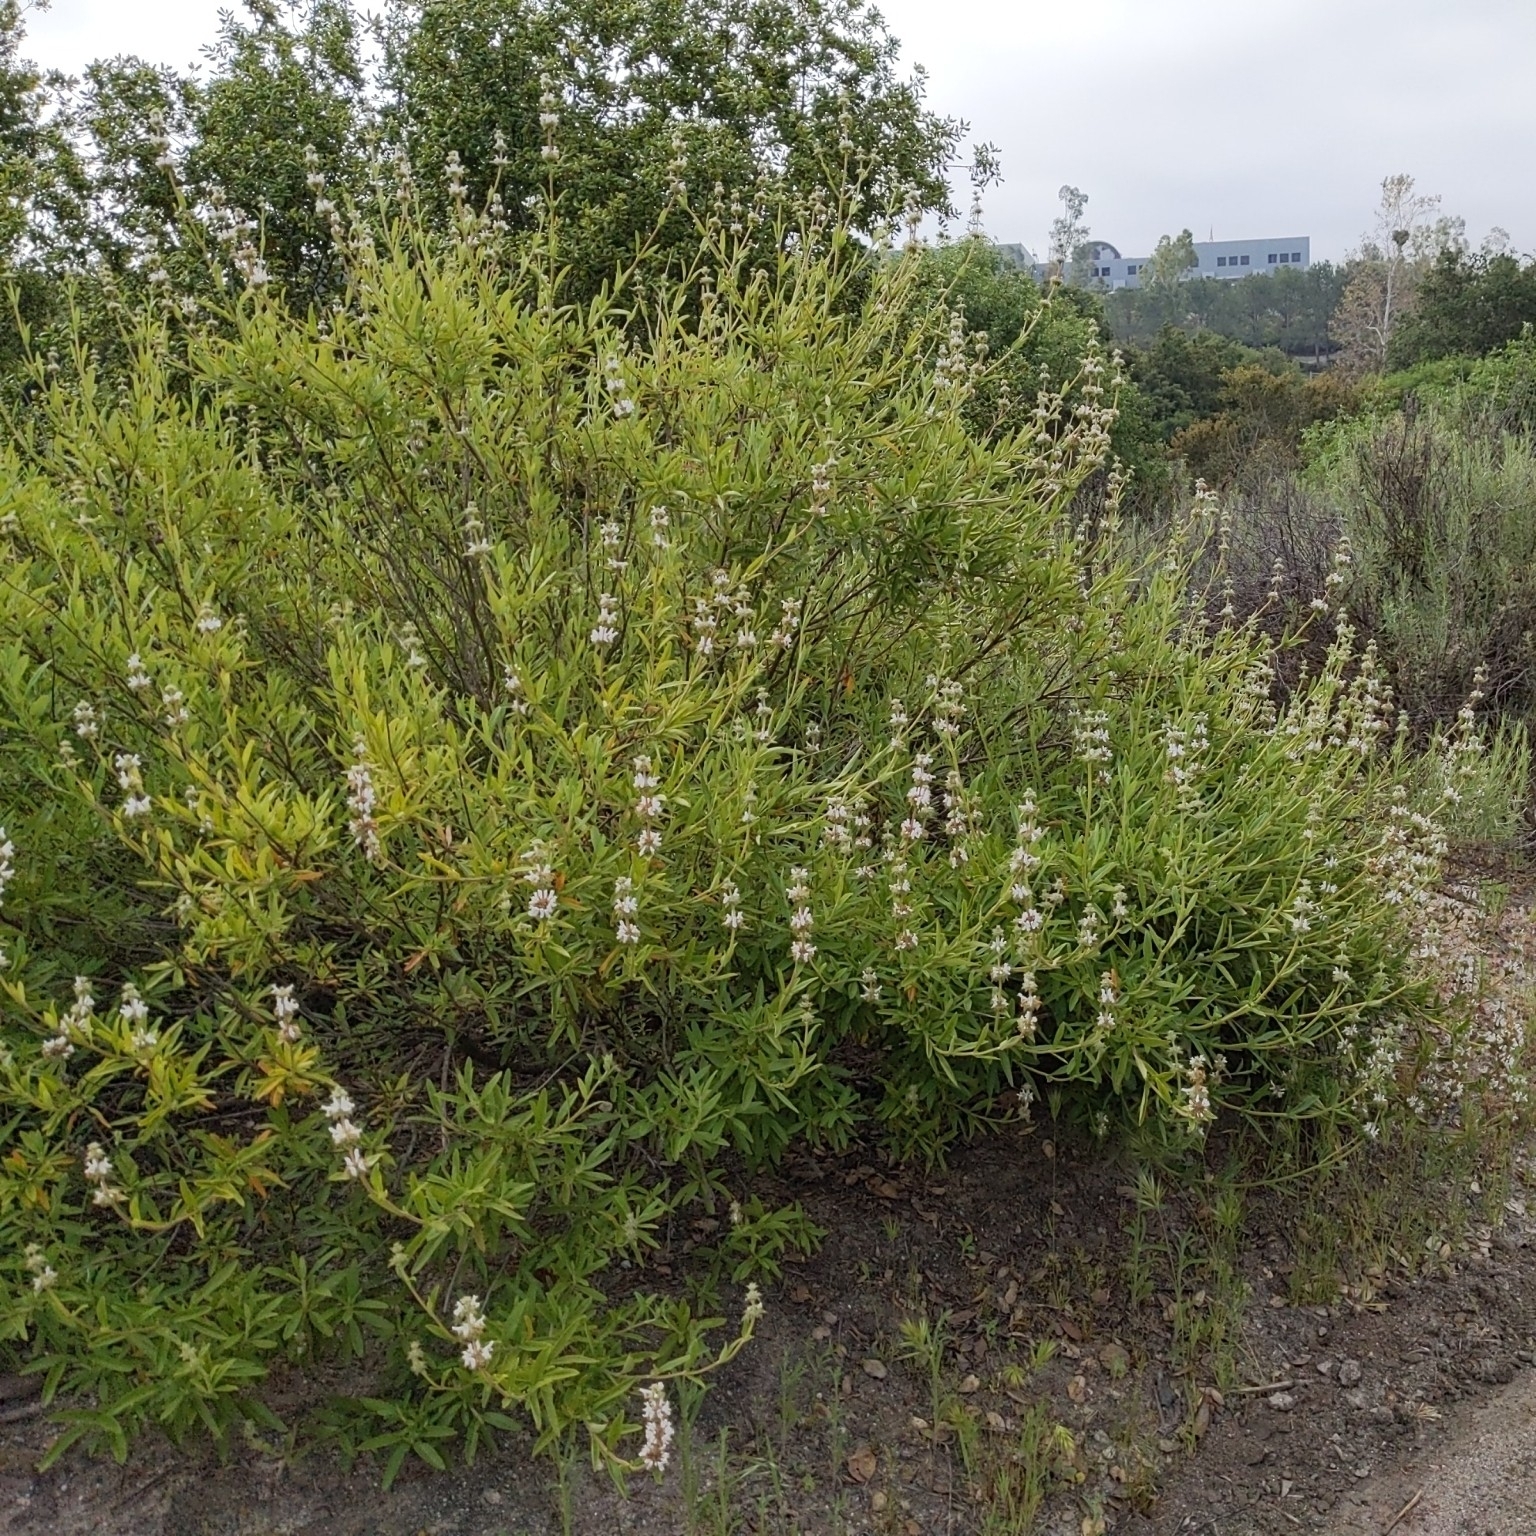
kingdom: Plantae
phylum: Tracheophyta
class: Magnoliopsida
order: Lamiales
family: Lamiaceae
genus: Salvia
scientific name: Salvia mellifera
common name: Black sage
